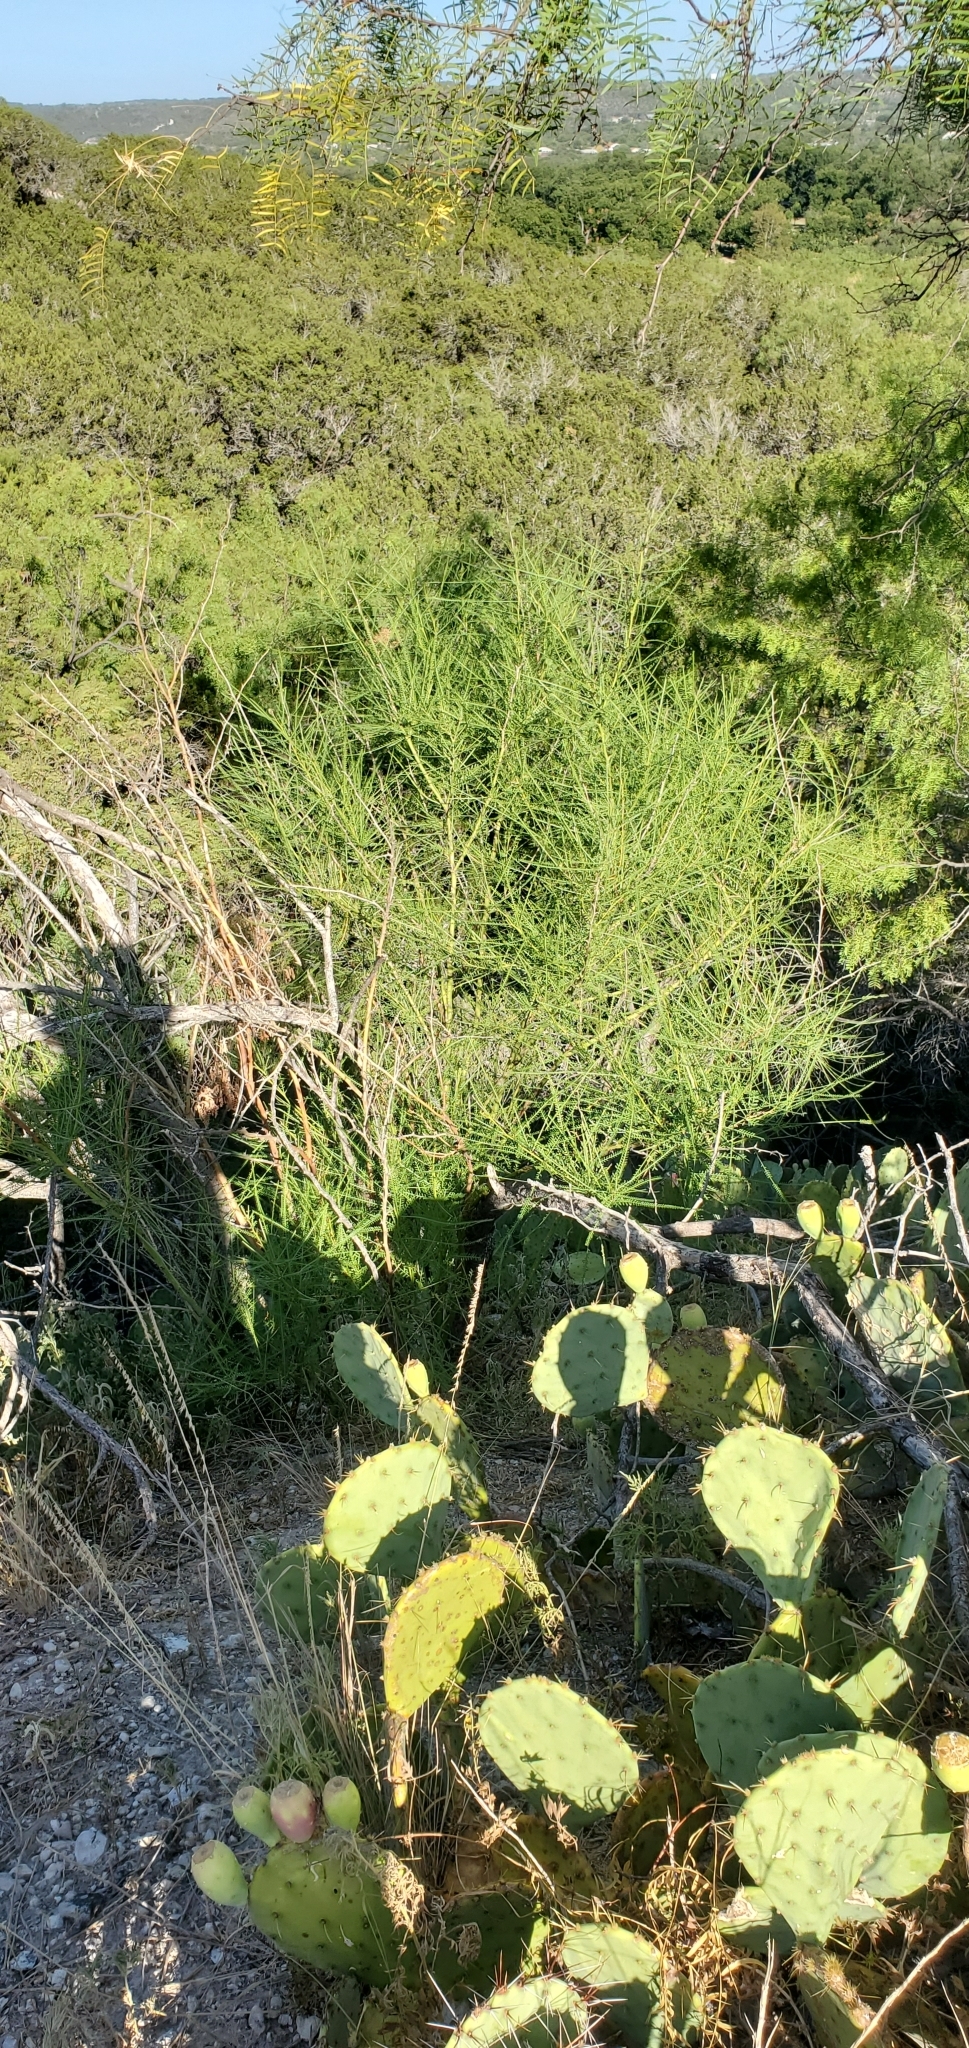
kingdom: Plantae
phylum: Tracheophyta
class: Magnoliopsida
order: Fabales
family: Fabaceae
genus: Parkinsonia
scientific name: Parkinsonia aculeata
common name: Jerusalem thorn
